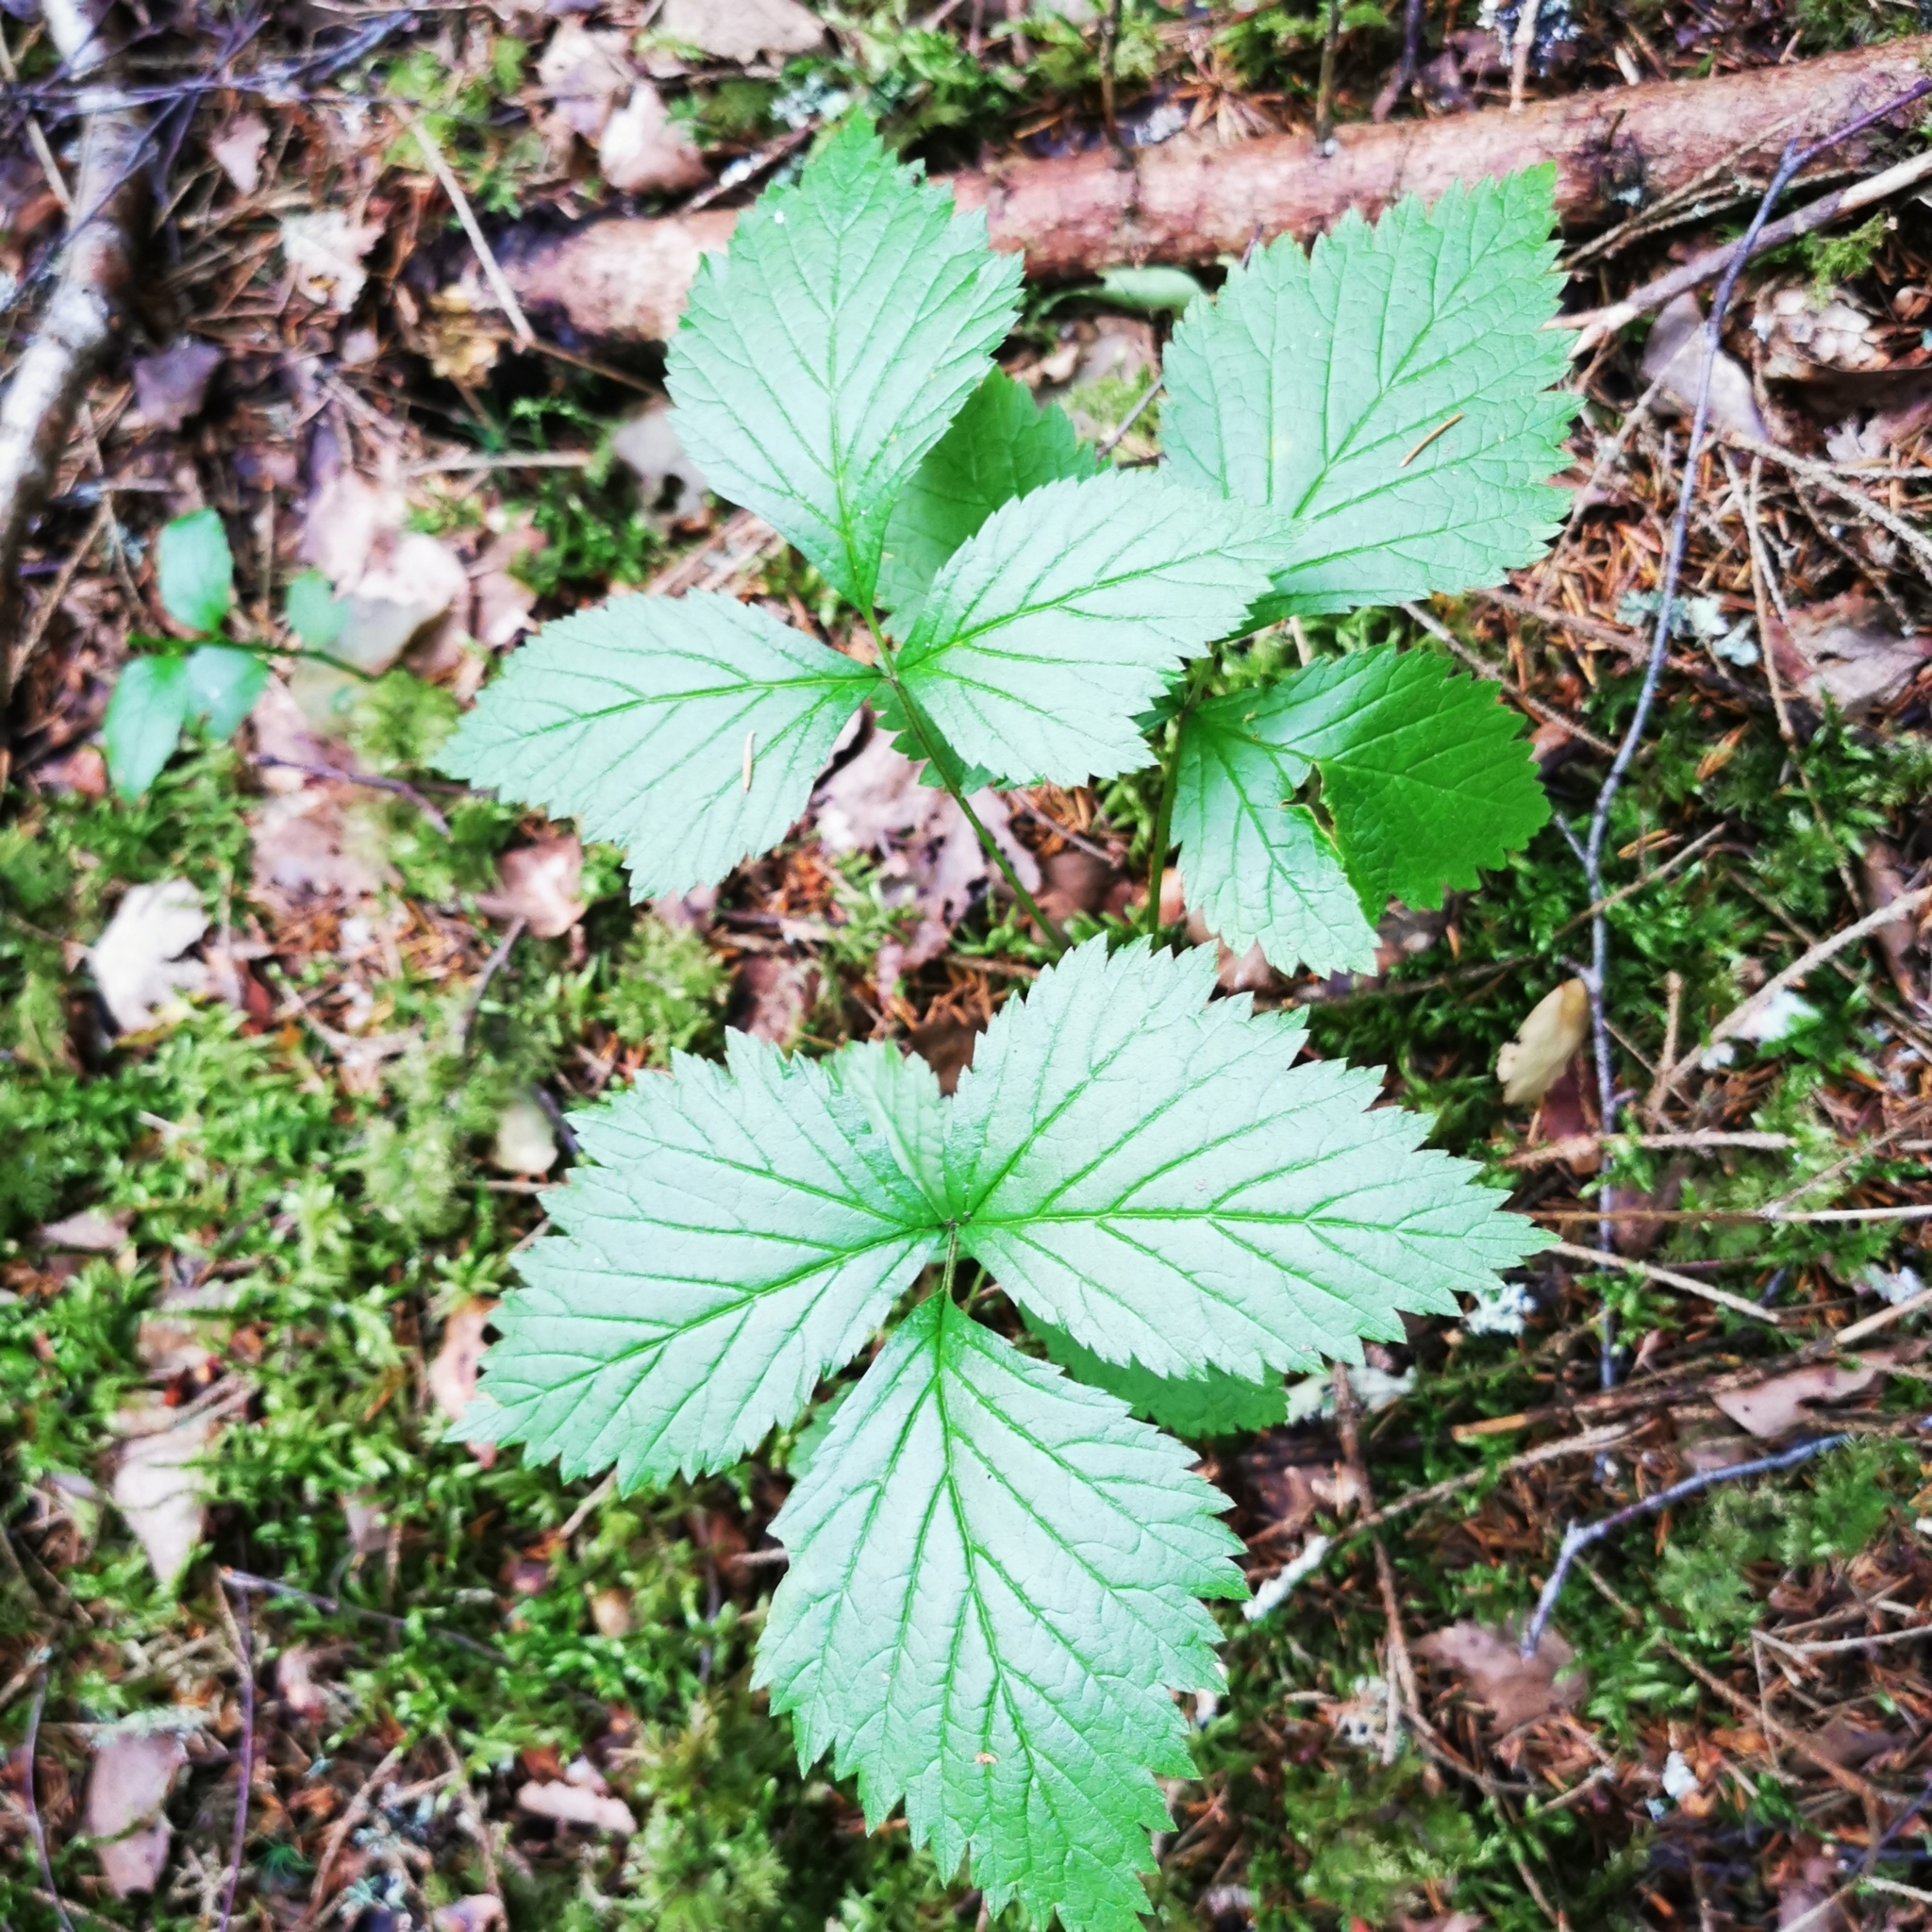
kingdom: Plantae
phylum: Tracheophyta
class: Magnoliopsida
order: Rosales
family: Rosaceae
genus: Rubus
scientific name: Rubus saxatilis
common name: Stone bramble
